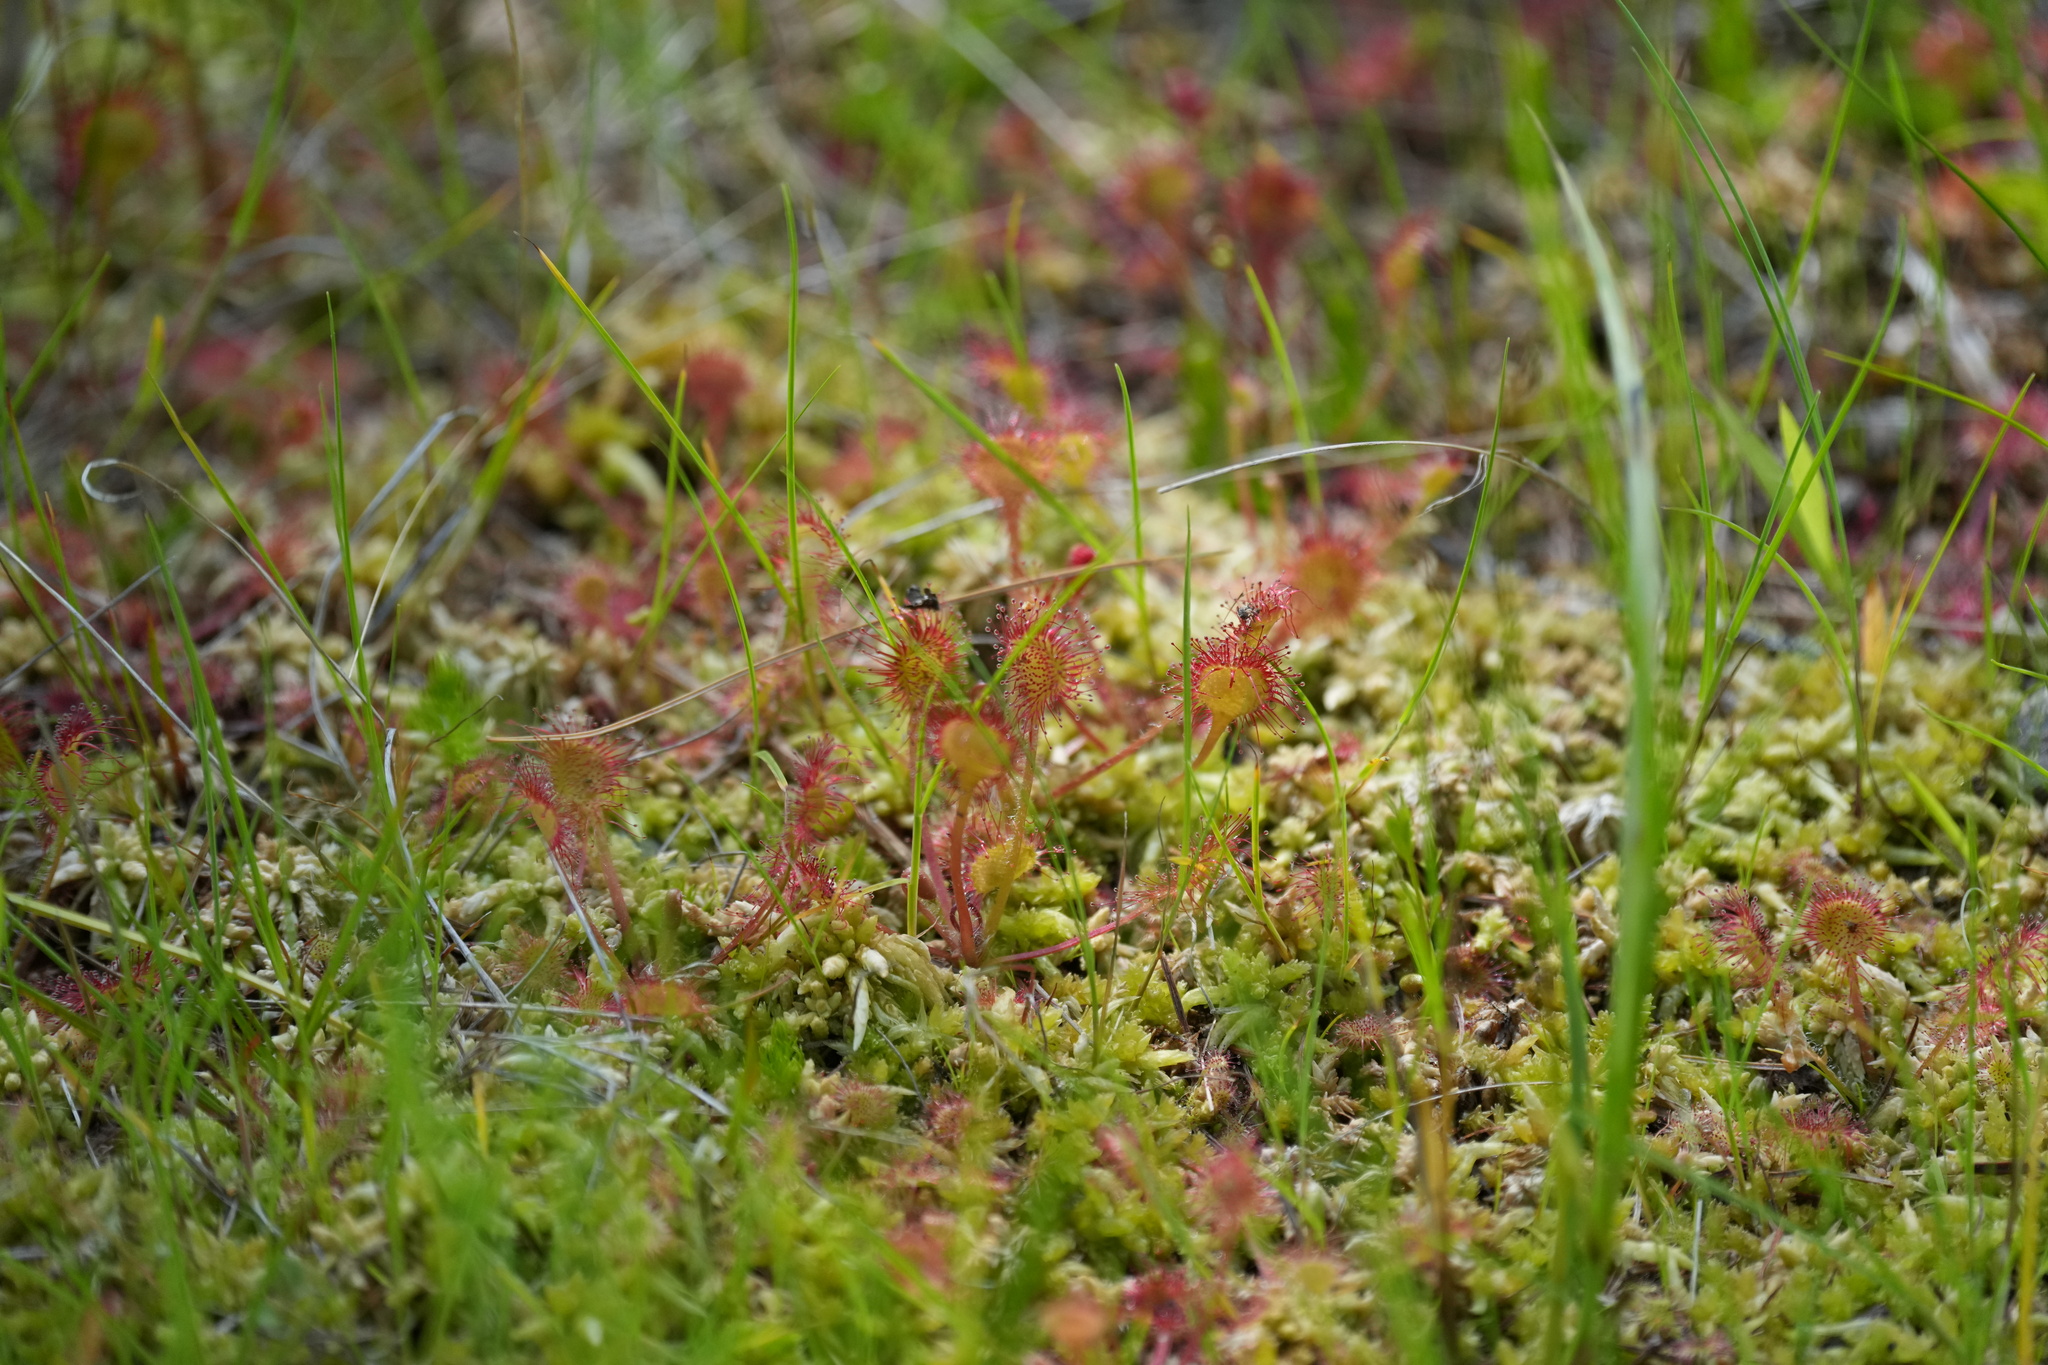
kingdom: Plantae
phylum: Tracheophyta
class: Magnoliopsida
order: Caryophyllales
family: Droseraceae
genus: Drosera
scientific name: Drosera rotundifolia
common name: Round-leaved sundew
